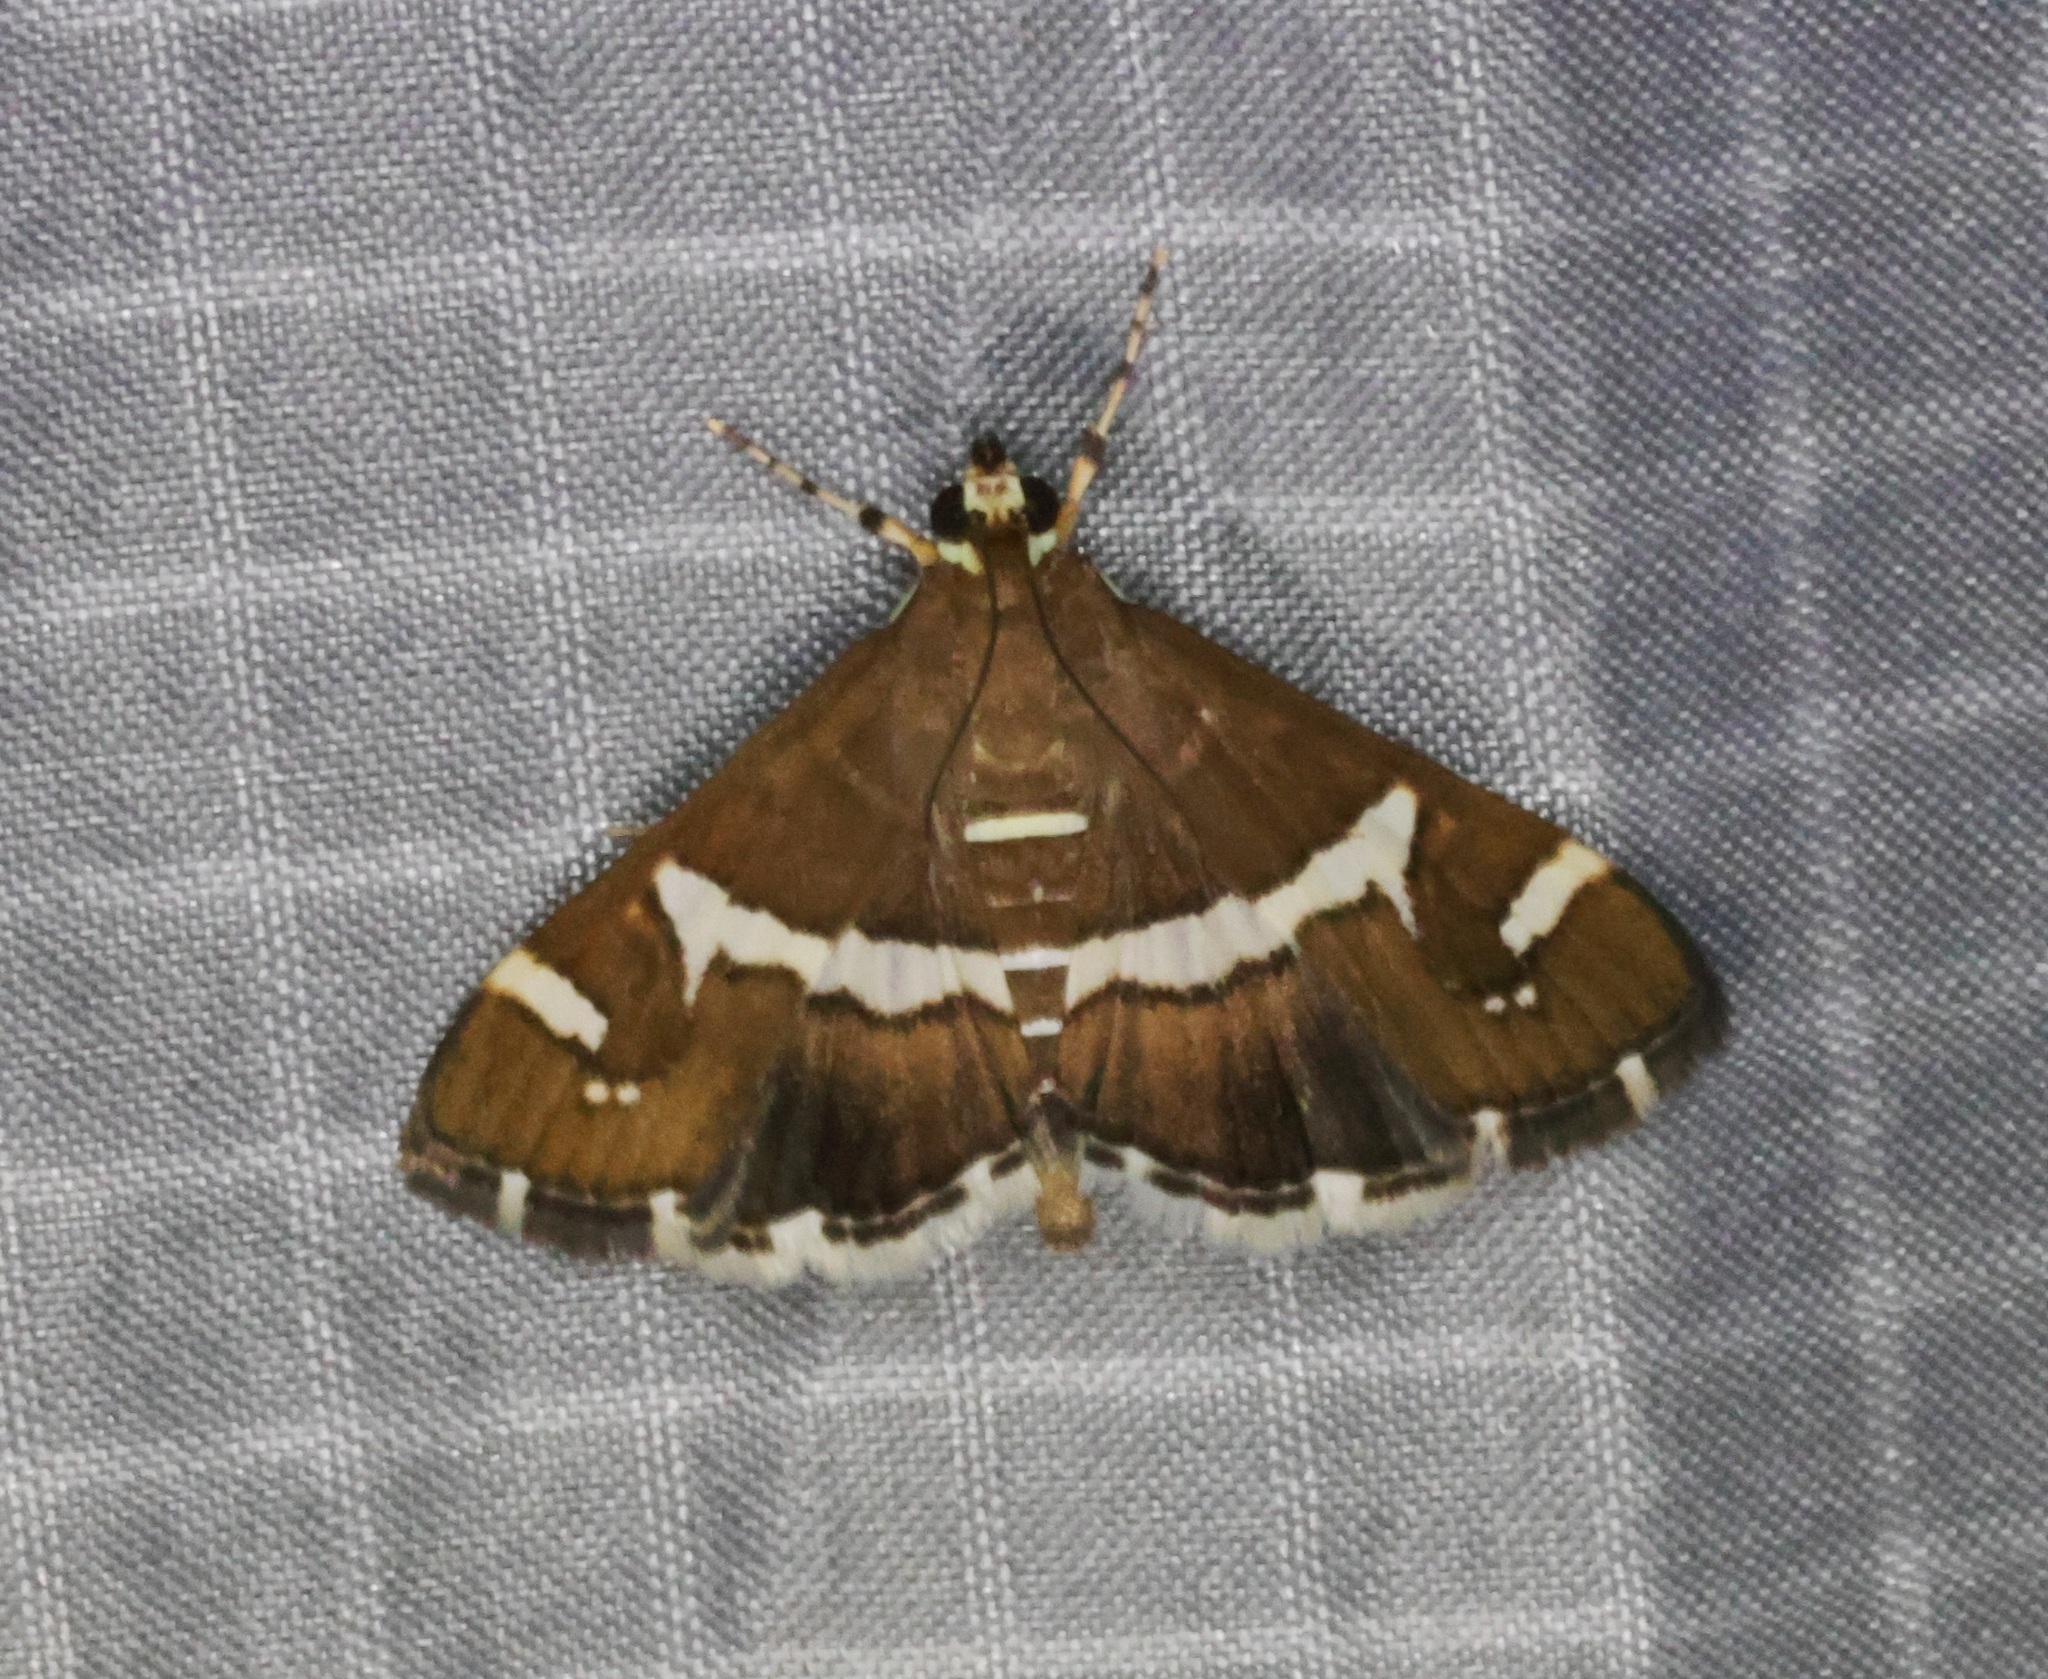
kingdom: Animalia
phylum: Arthropoda
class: Insecta
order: Lepidoptera
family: Crambidae
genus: Spoladea
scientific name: Spoladea recurvalis
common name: Beet webworm moth
